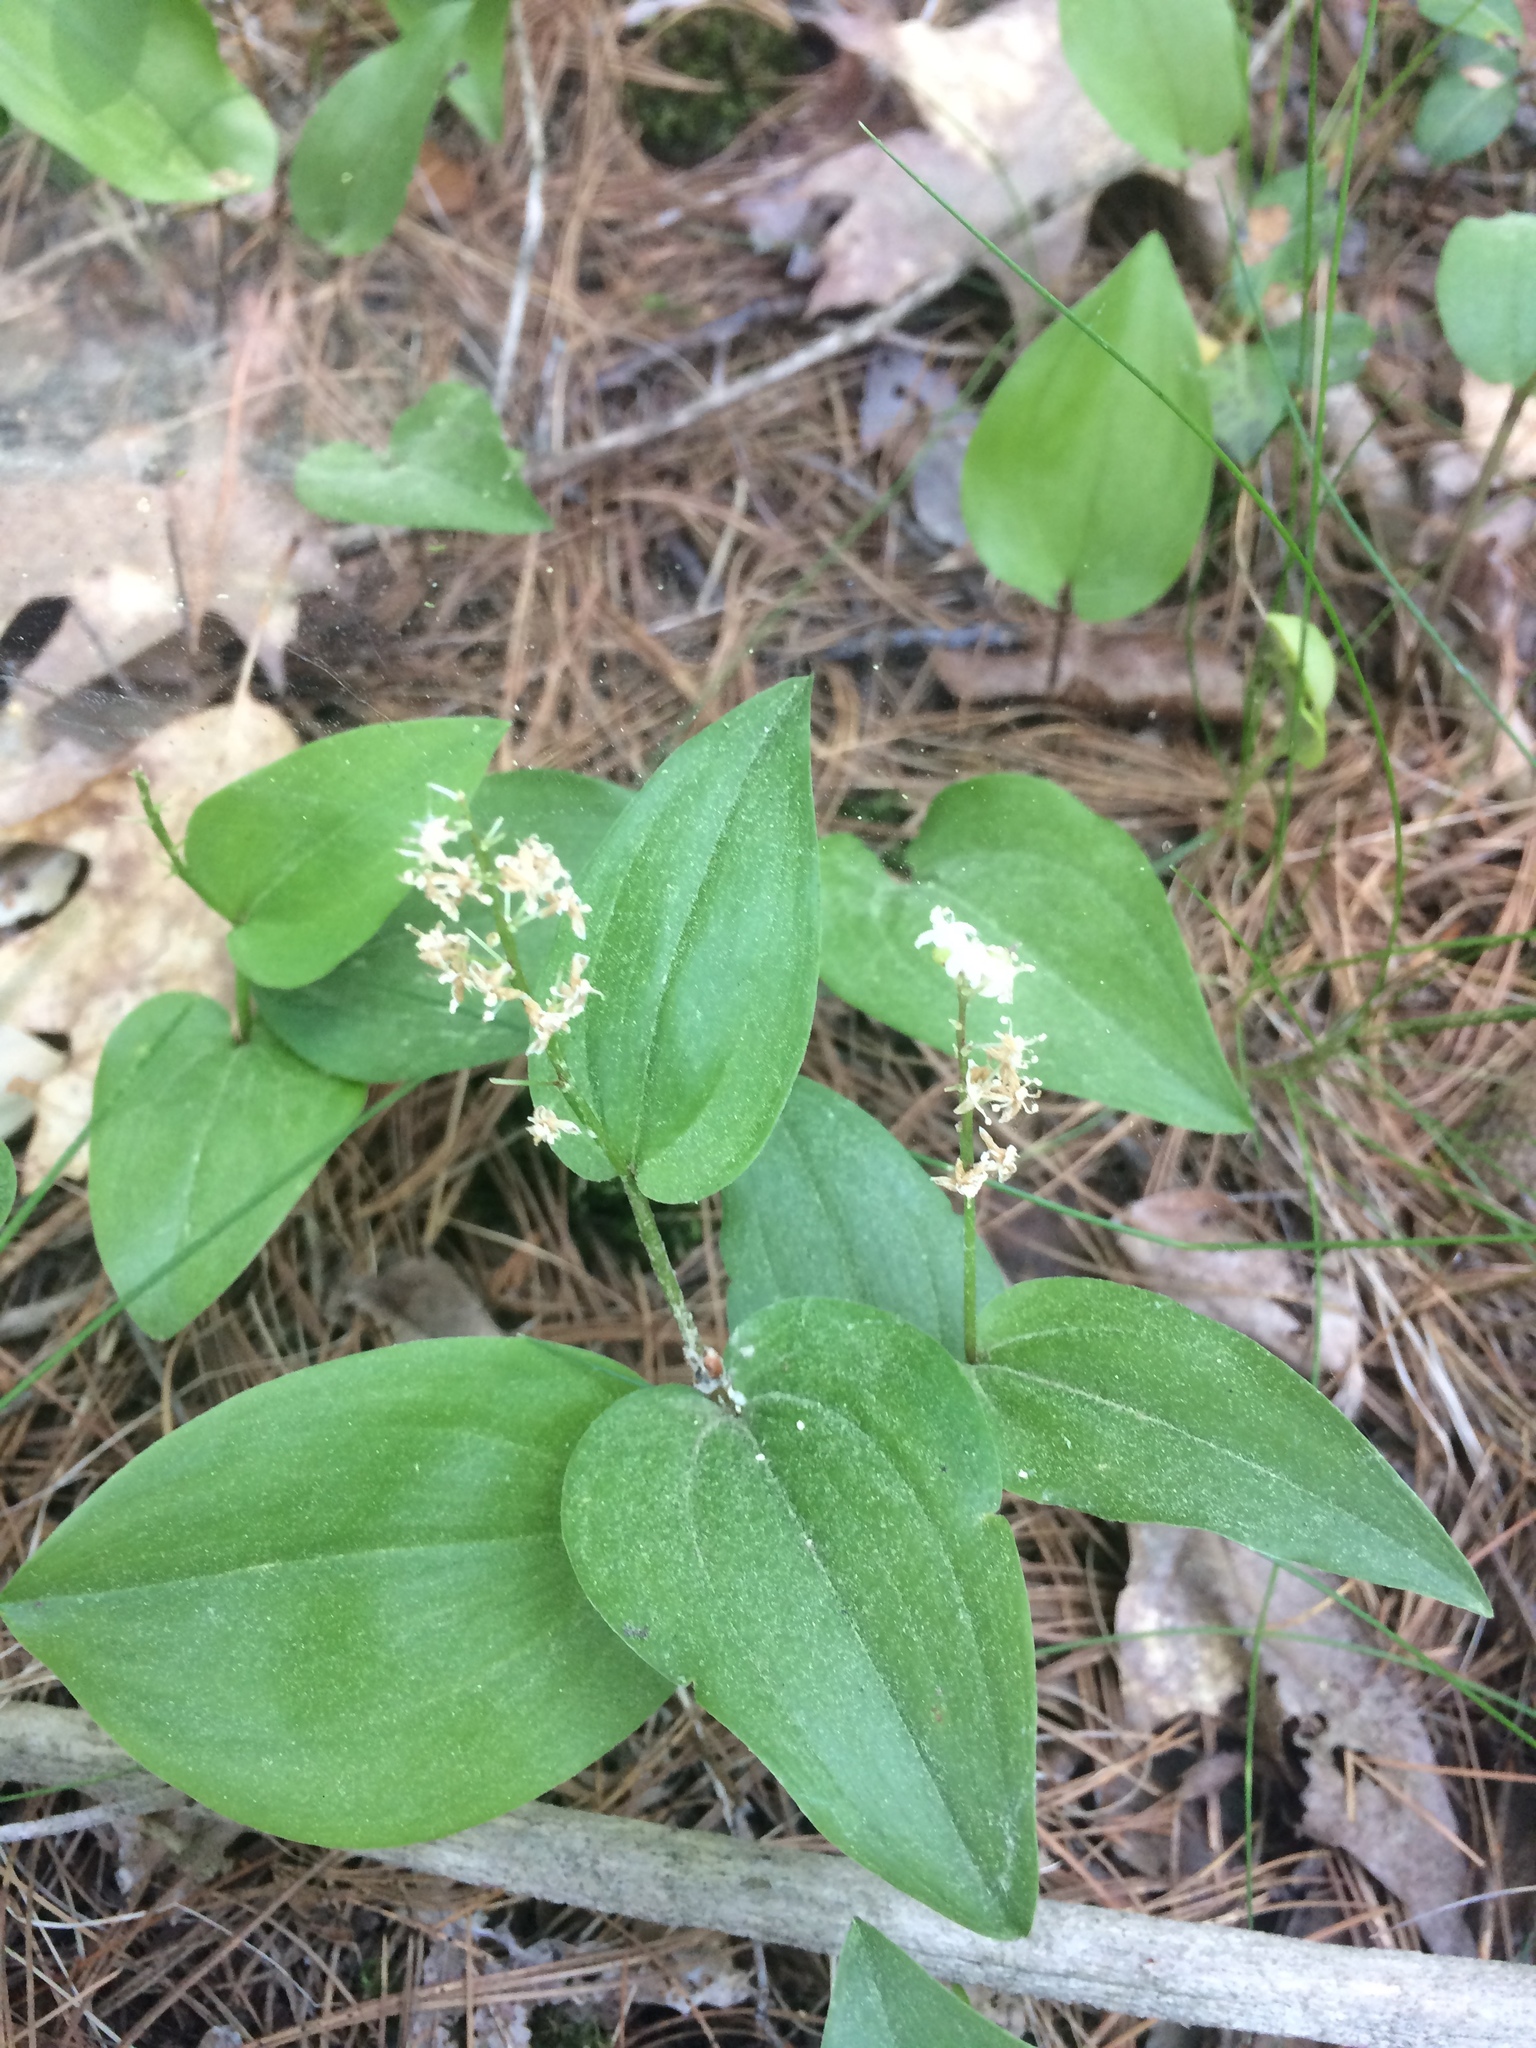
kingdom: Plantae
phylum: Tracheophyta
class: Liliopsida
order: Asparagales
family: Asparagaceae
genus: Maianthemum
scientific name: Maianthemum canadense
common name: False lily-of-the-valley
